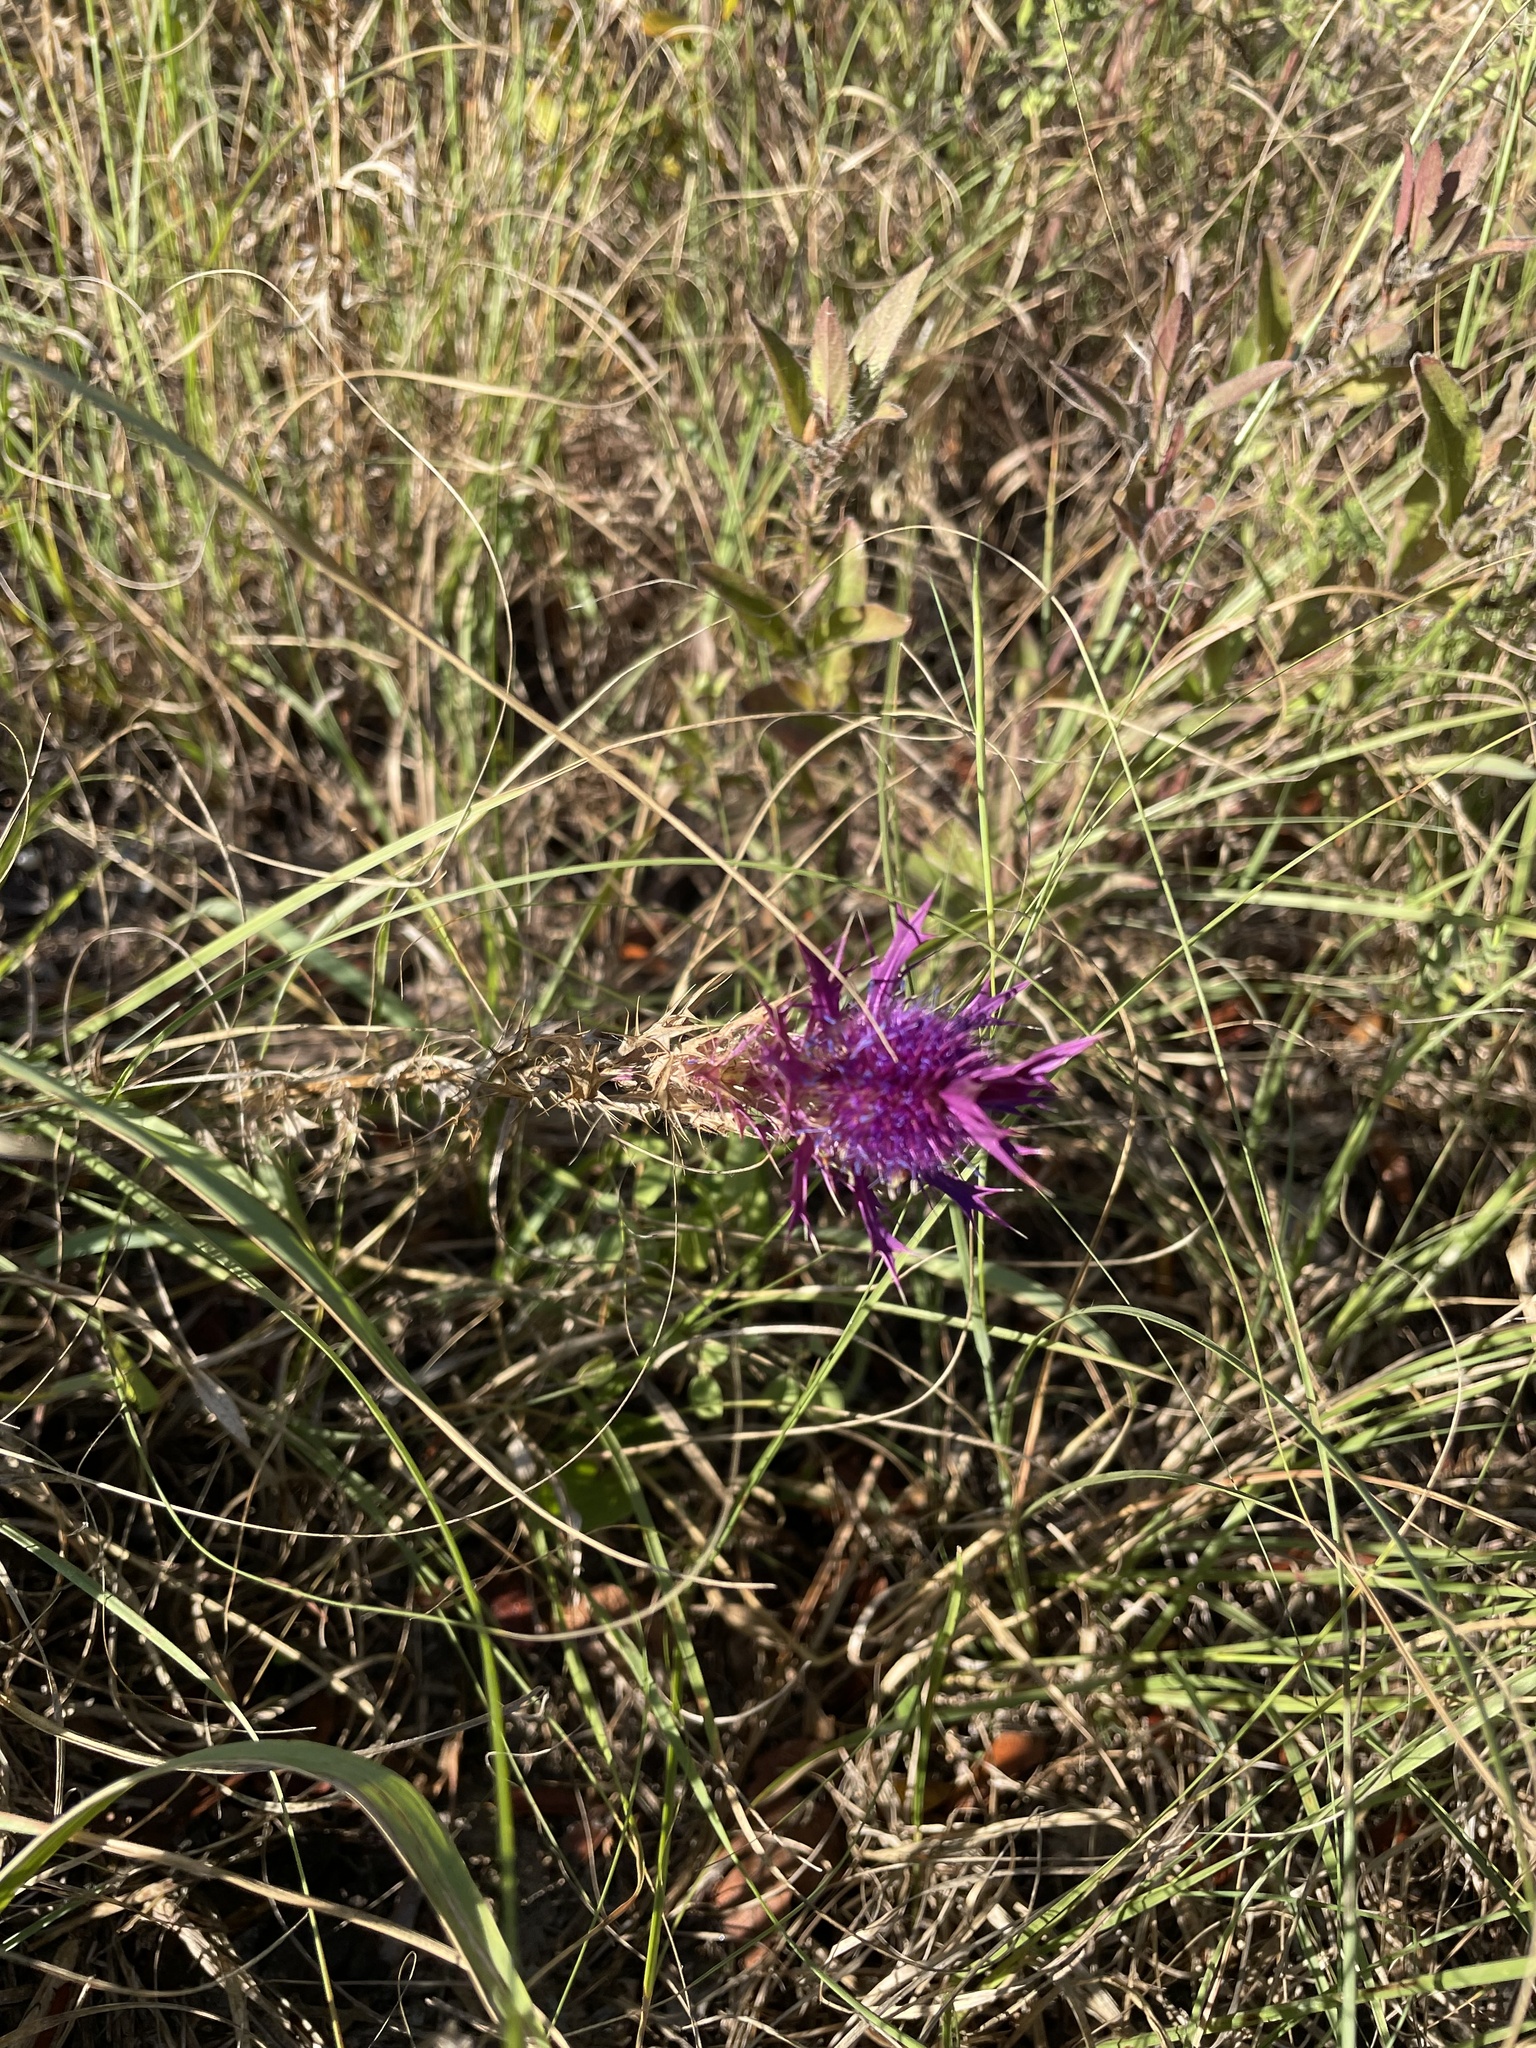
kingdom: Plantae
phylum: Tracheophyta
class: Magnoliopsida
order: Apiales
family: Apiaceae
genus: Eryngium
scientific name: Eryngium leavenworthii
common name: Leavenworth's eryngo
